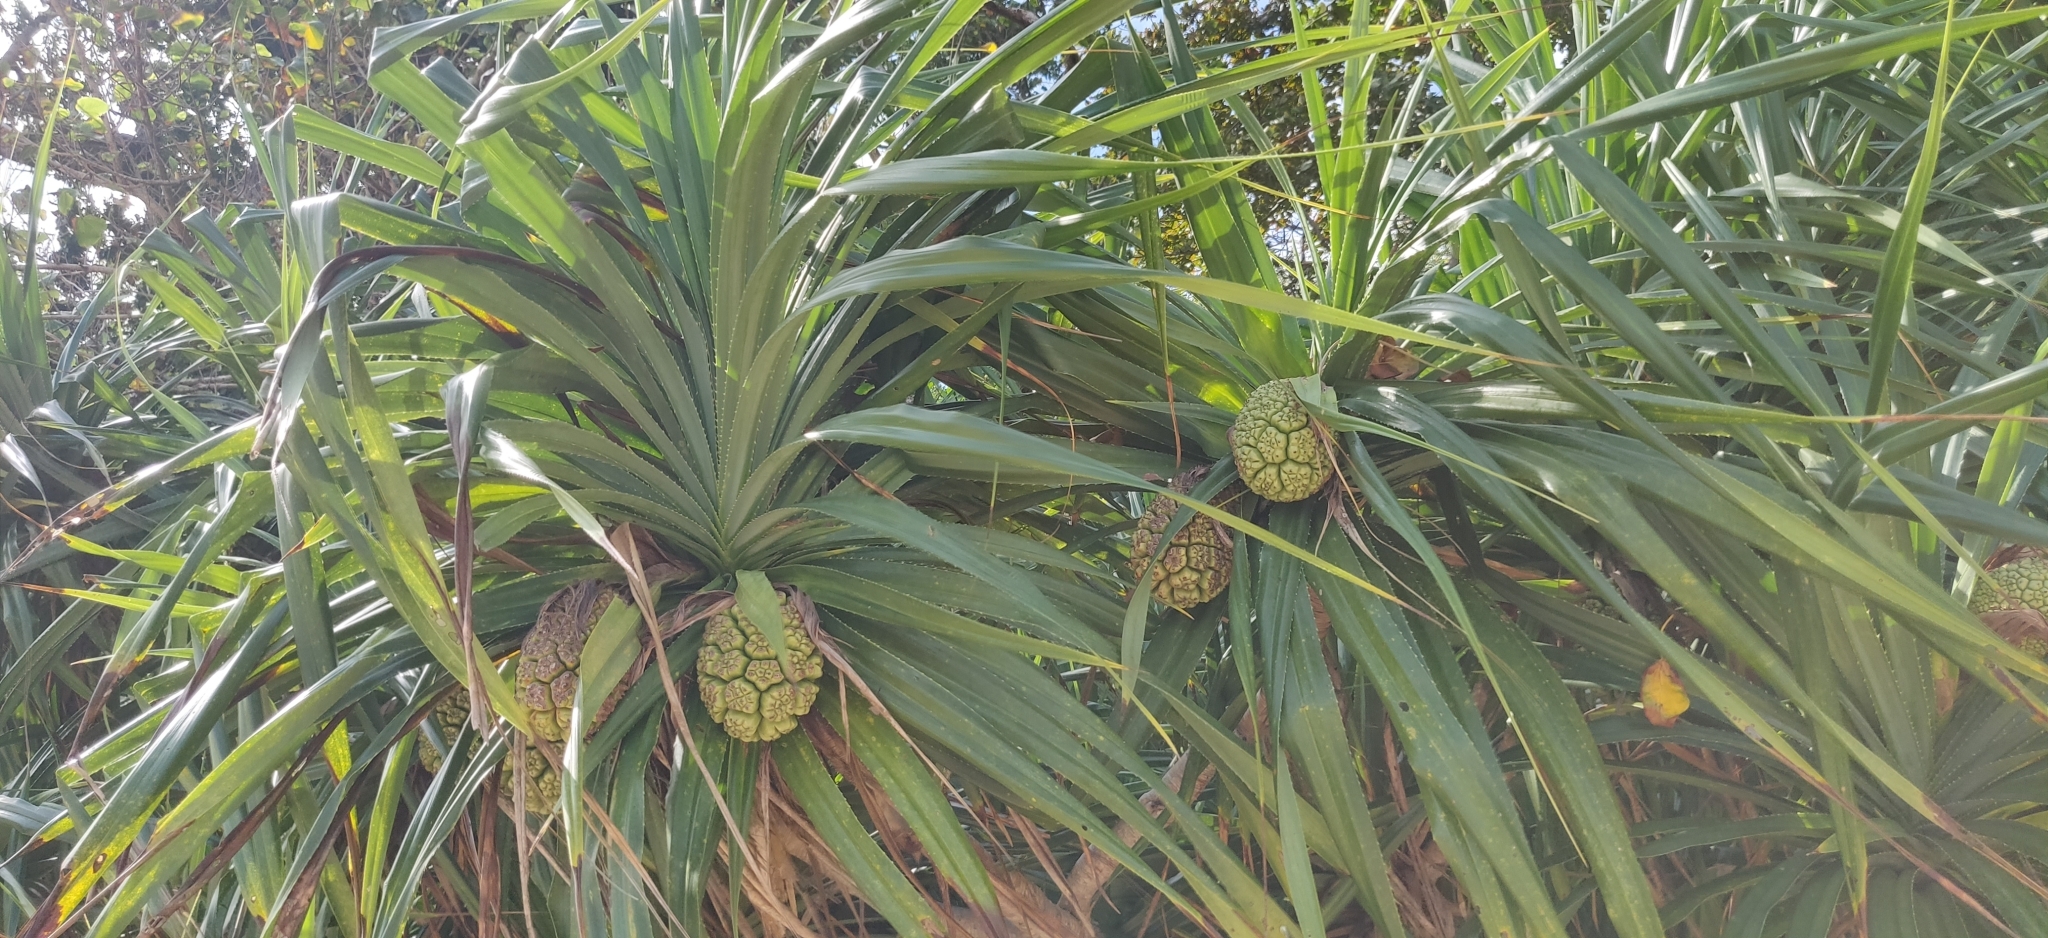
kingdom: Plantae
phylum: Tracheophyta
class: Liliopsida
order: Pandanales
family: Pandanaceae
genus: Pandanus
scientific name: Pandanus tectorius
